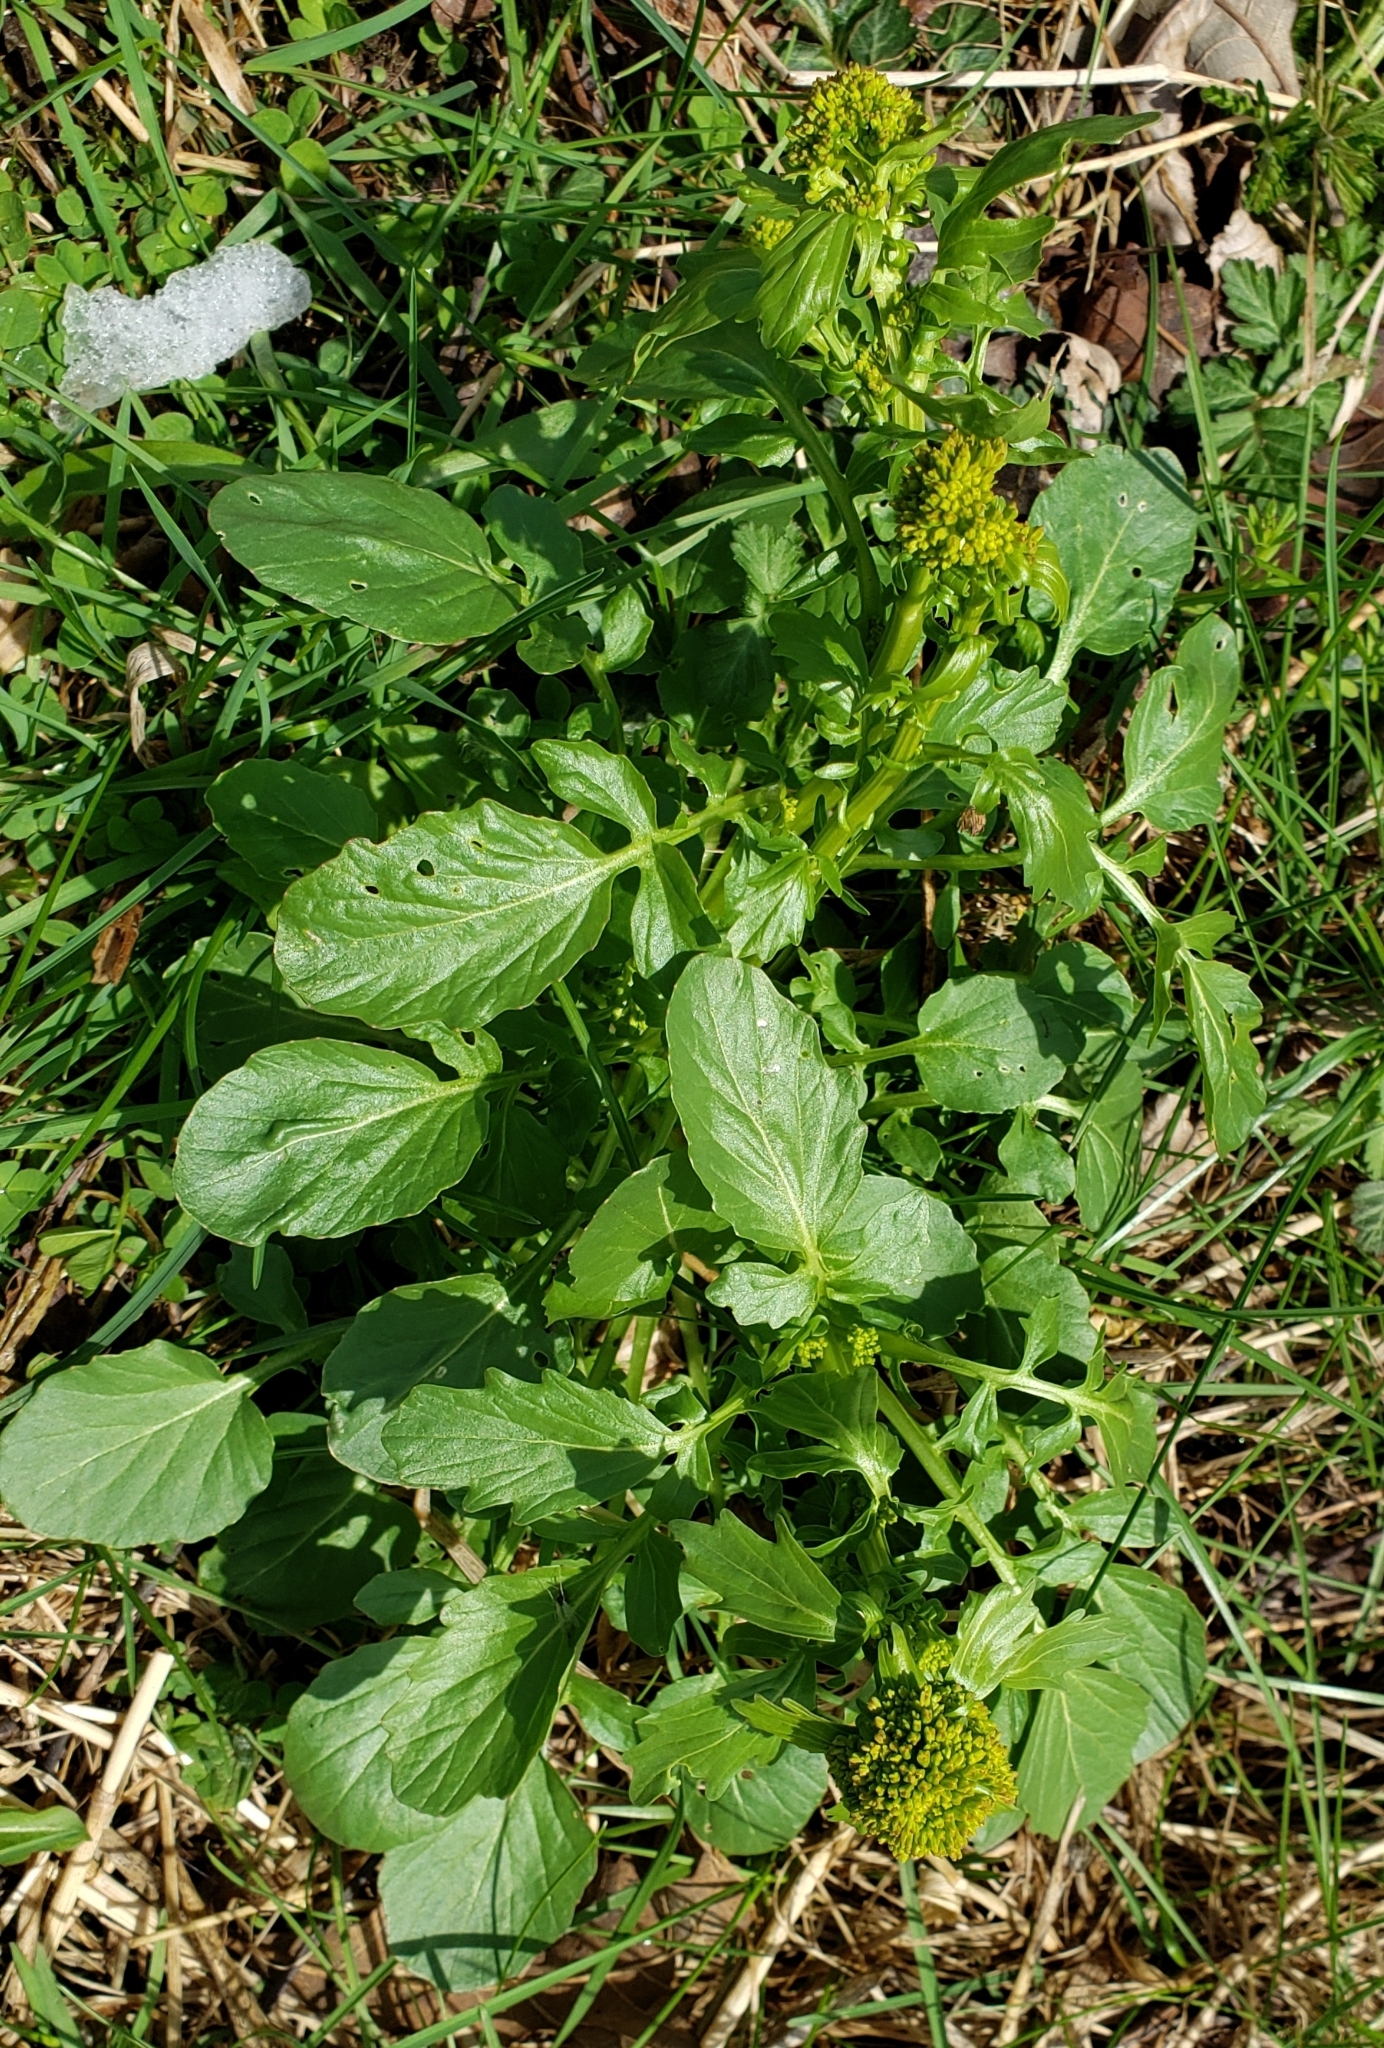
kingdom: Plantae
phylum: Tracheophyta
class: Magnoliopsida
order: Brassicales
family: Brassicaceae
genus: Barbarea
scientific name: Barbarea vulgaris
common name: Cressy-greens
